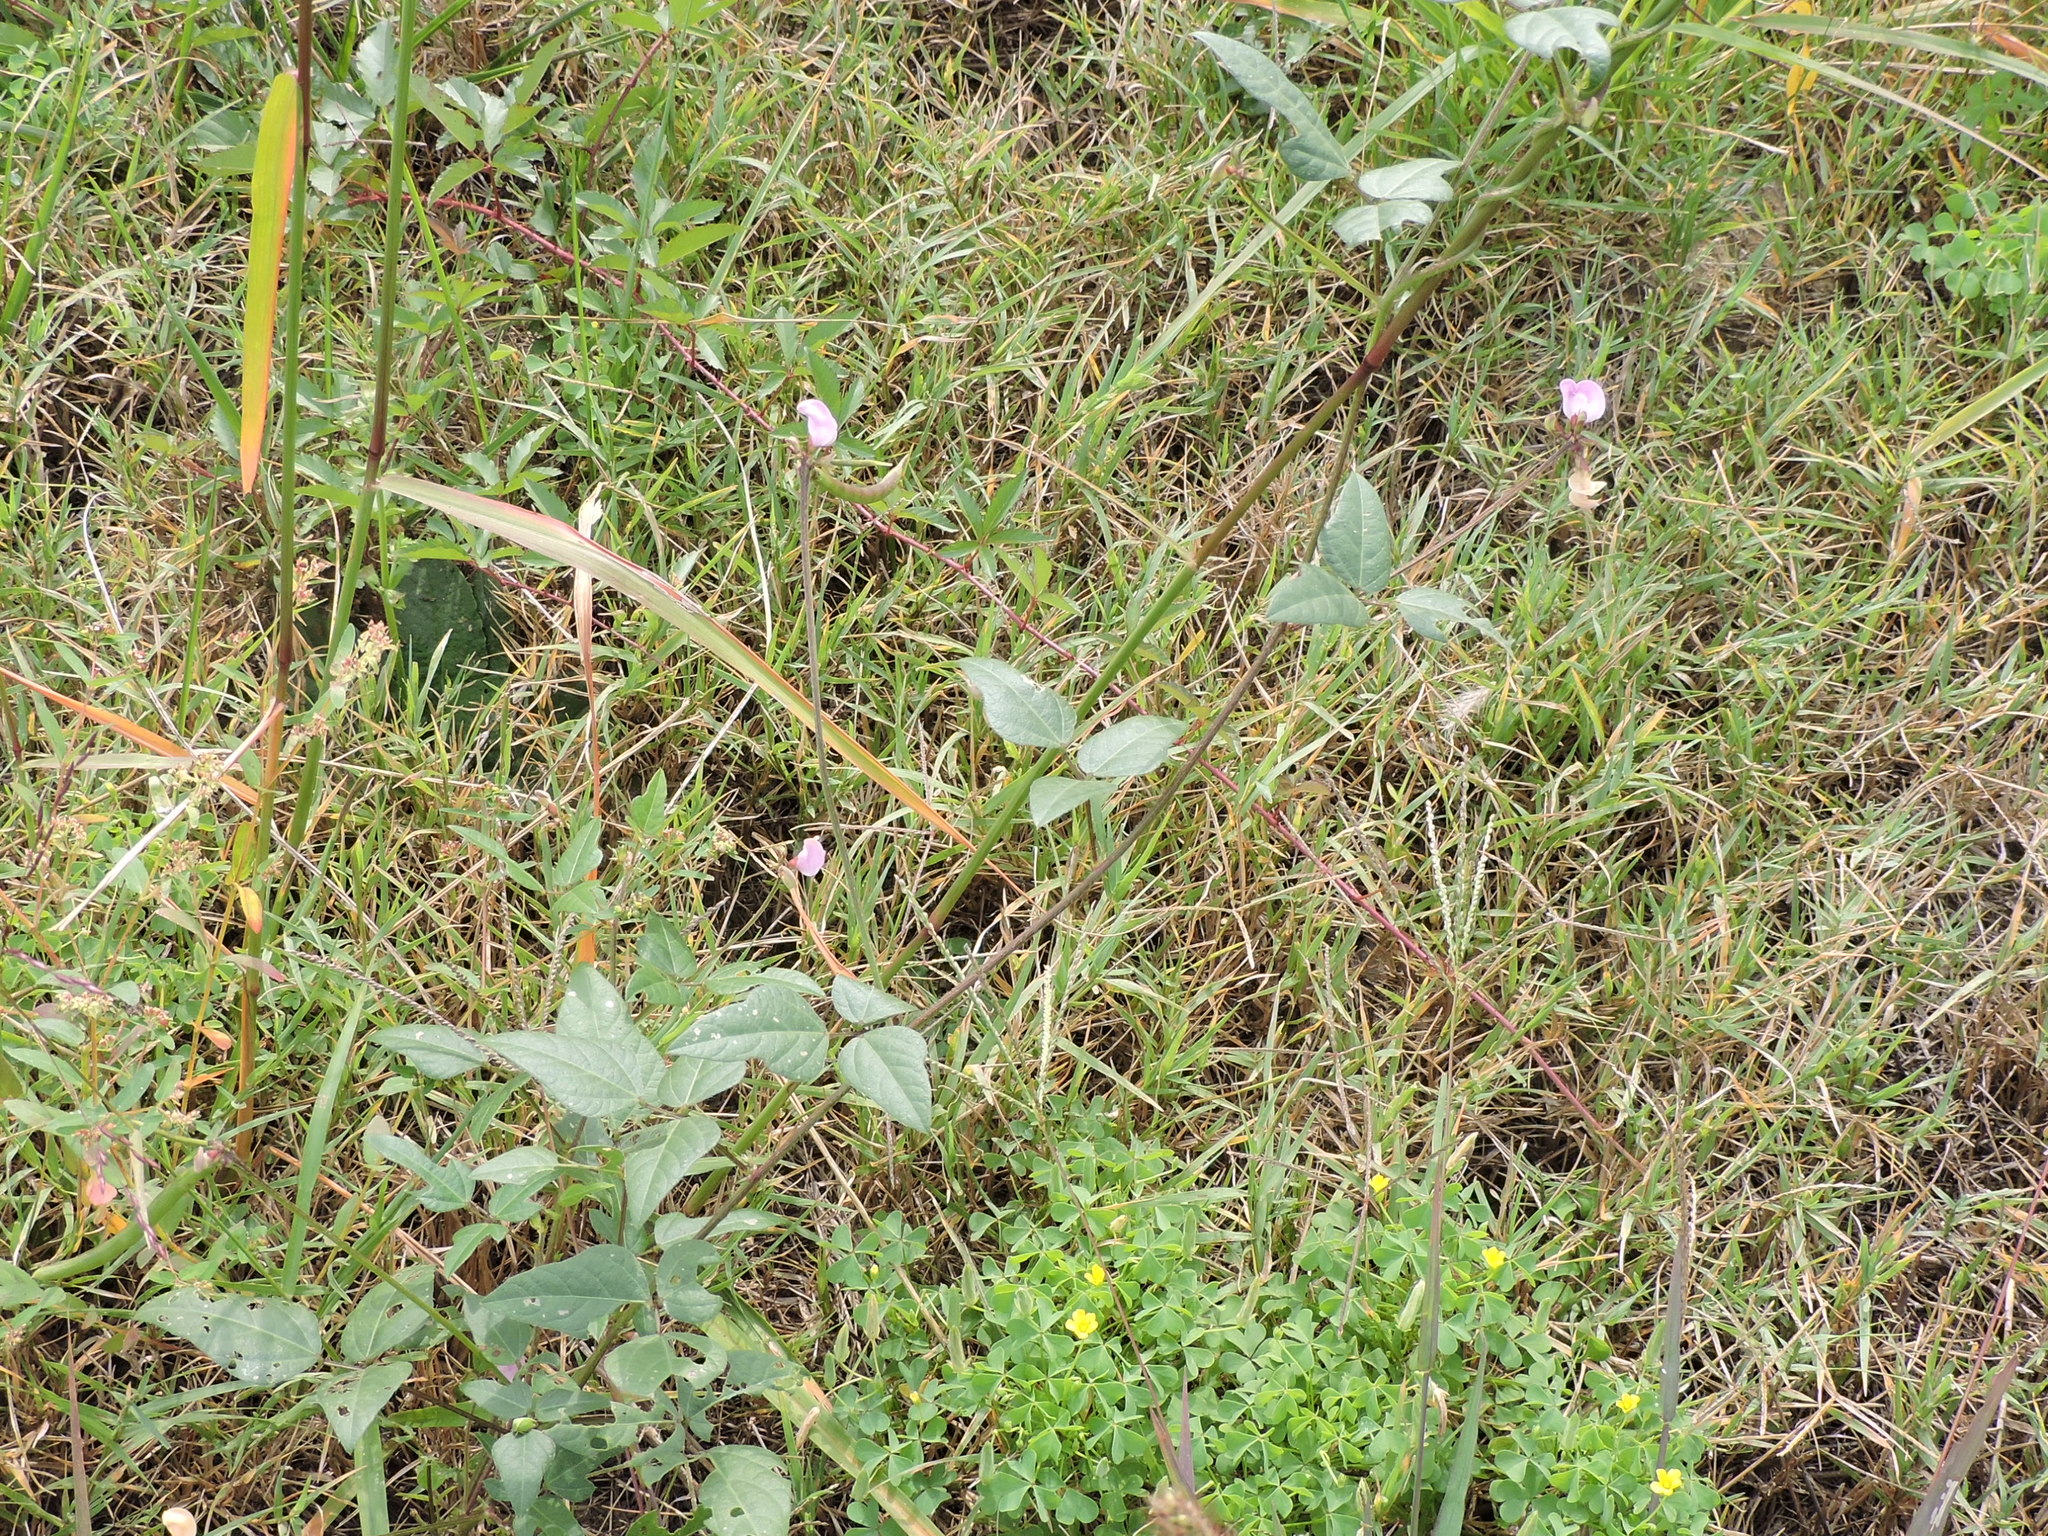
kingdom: Plantae
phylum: Tracheophyta
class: Magnoliopsida
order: Fabales
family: Fabaceae
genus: Strophostyles
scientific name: Strophostyles helvola
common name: Trailing wild bean
